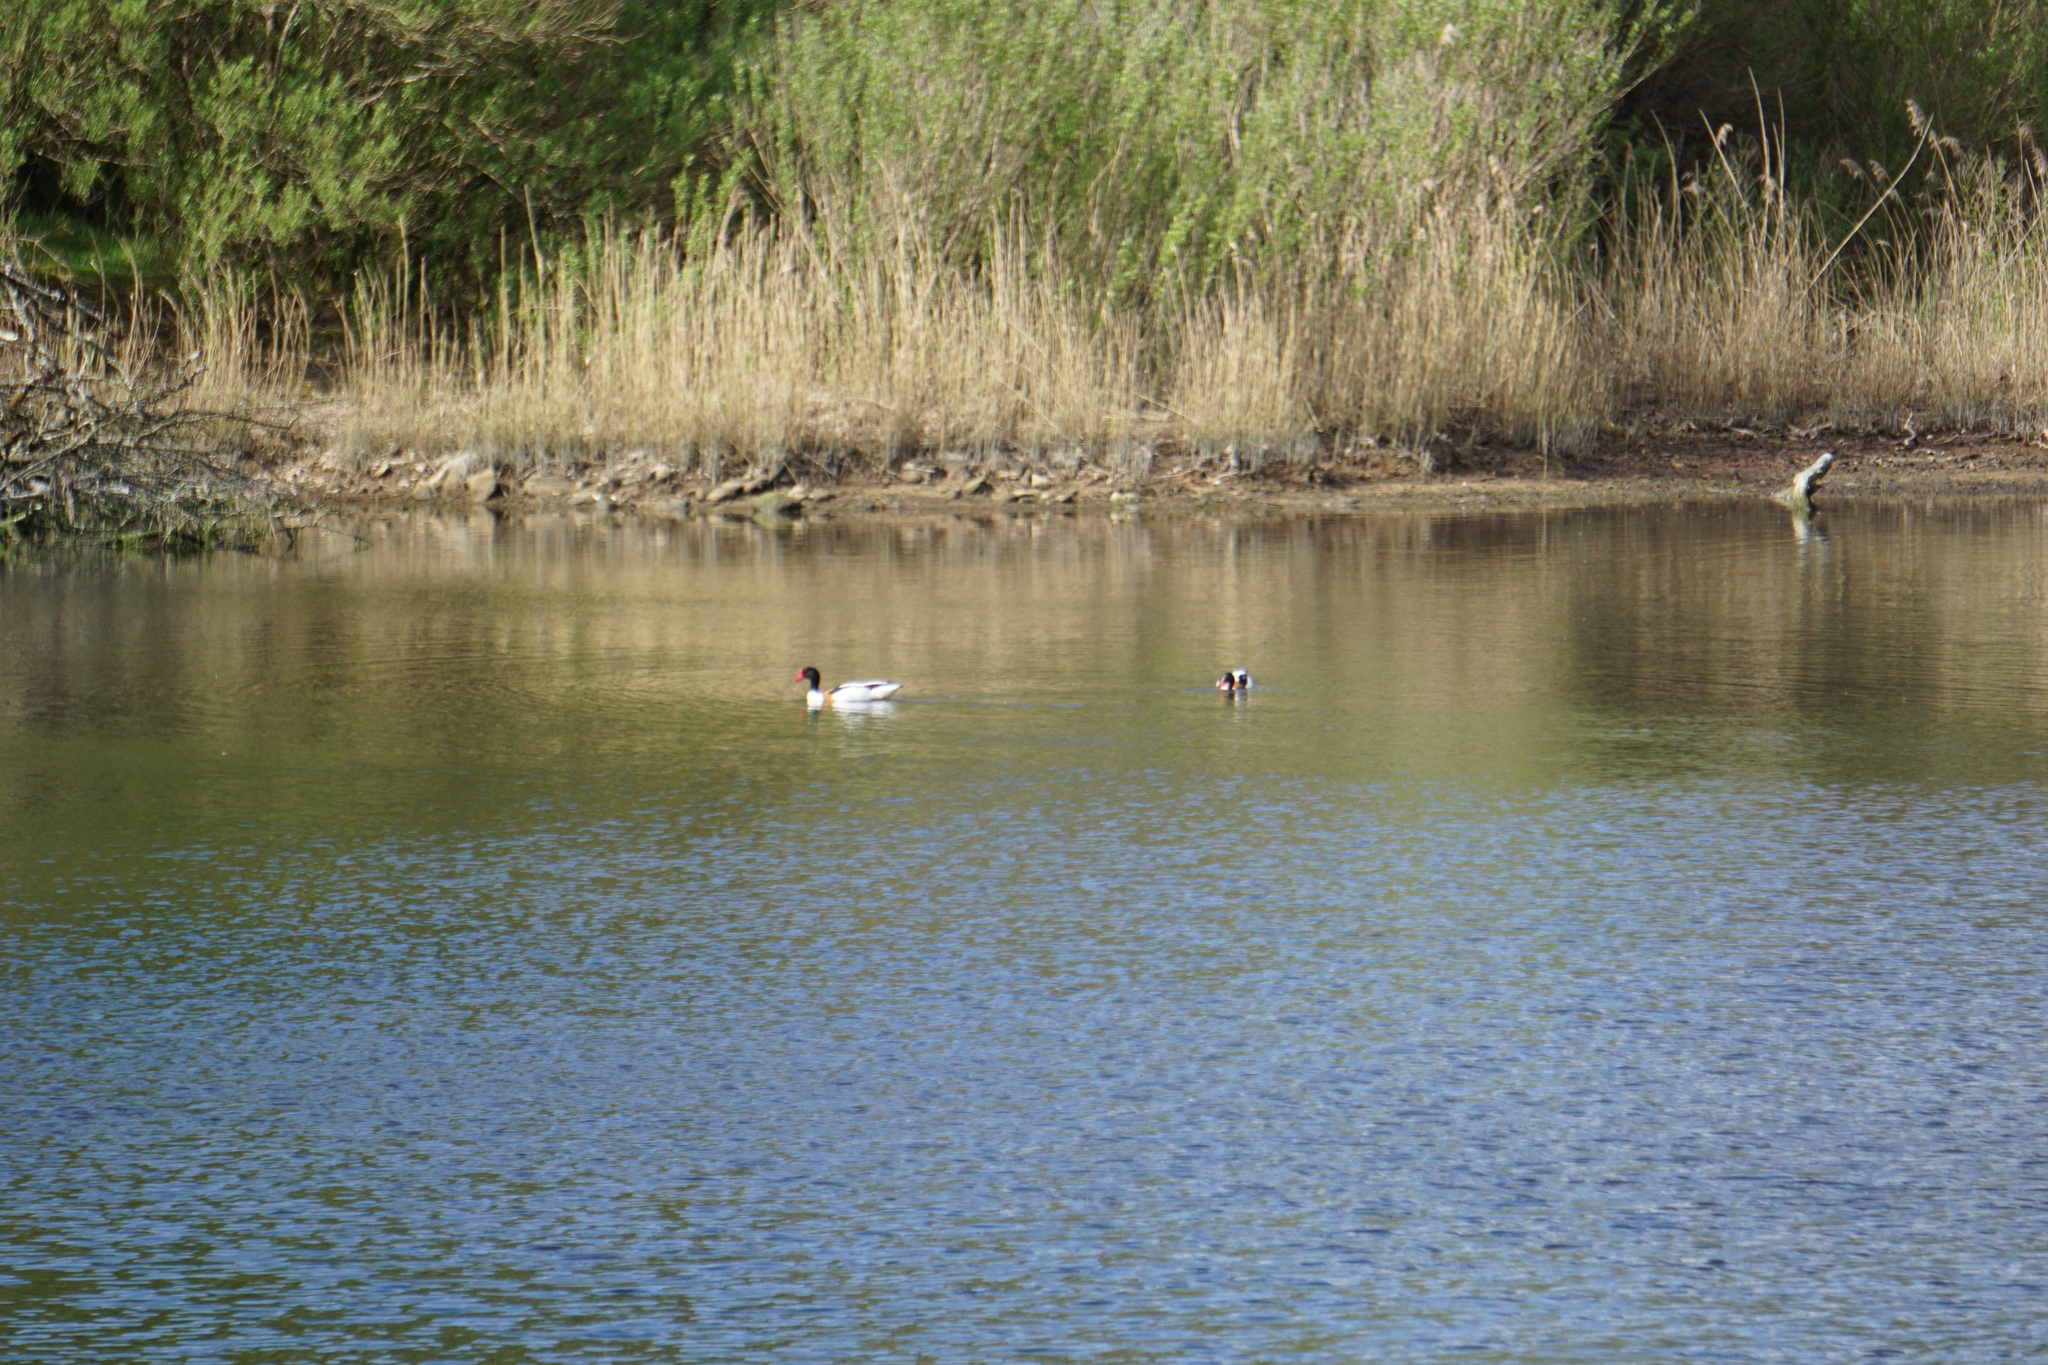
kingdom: Animalia
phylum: Chordata
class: Aves
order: Anseriformes
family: Anatidae
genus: Tadorna
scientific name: Tadorna tadorna
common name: Common shelduck
